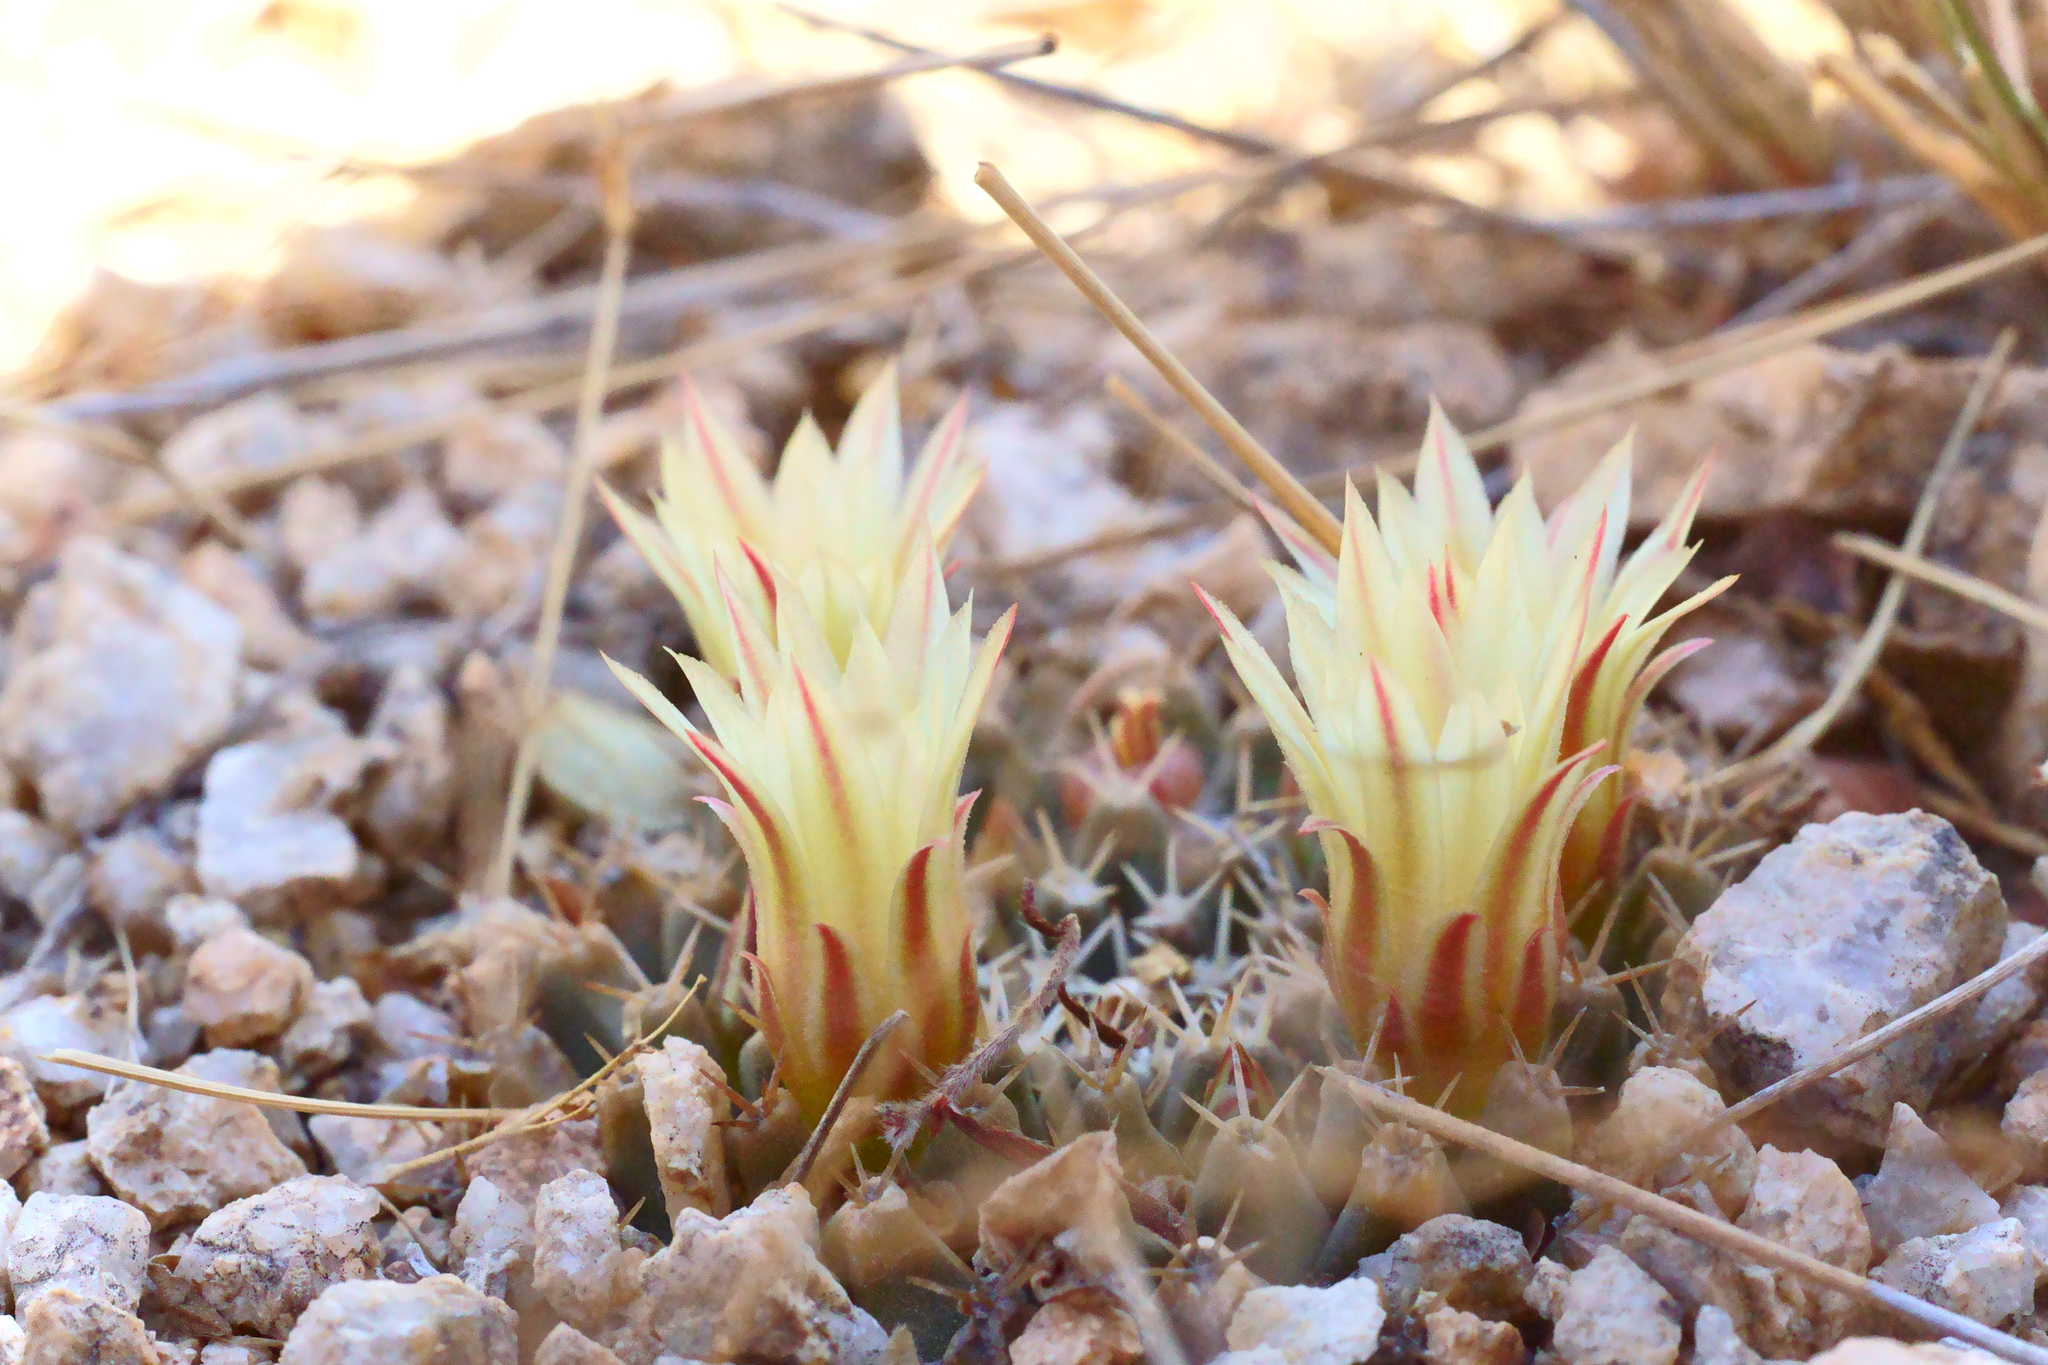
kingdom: Plantae
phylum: Tracheophyta
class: Magnoliopsida
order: Caryophyllales
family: Cactaceae
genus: Mammillaria
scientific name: Mammillaria peninsularis
